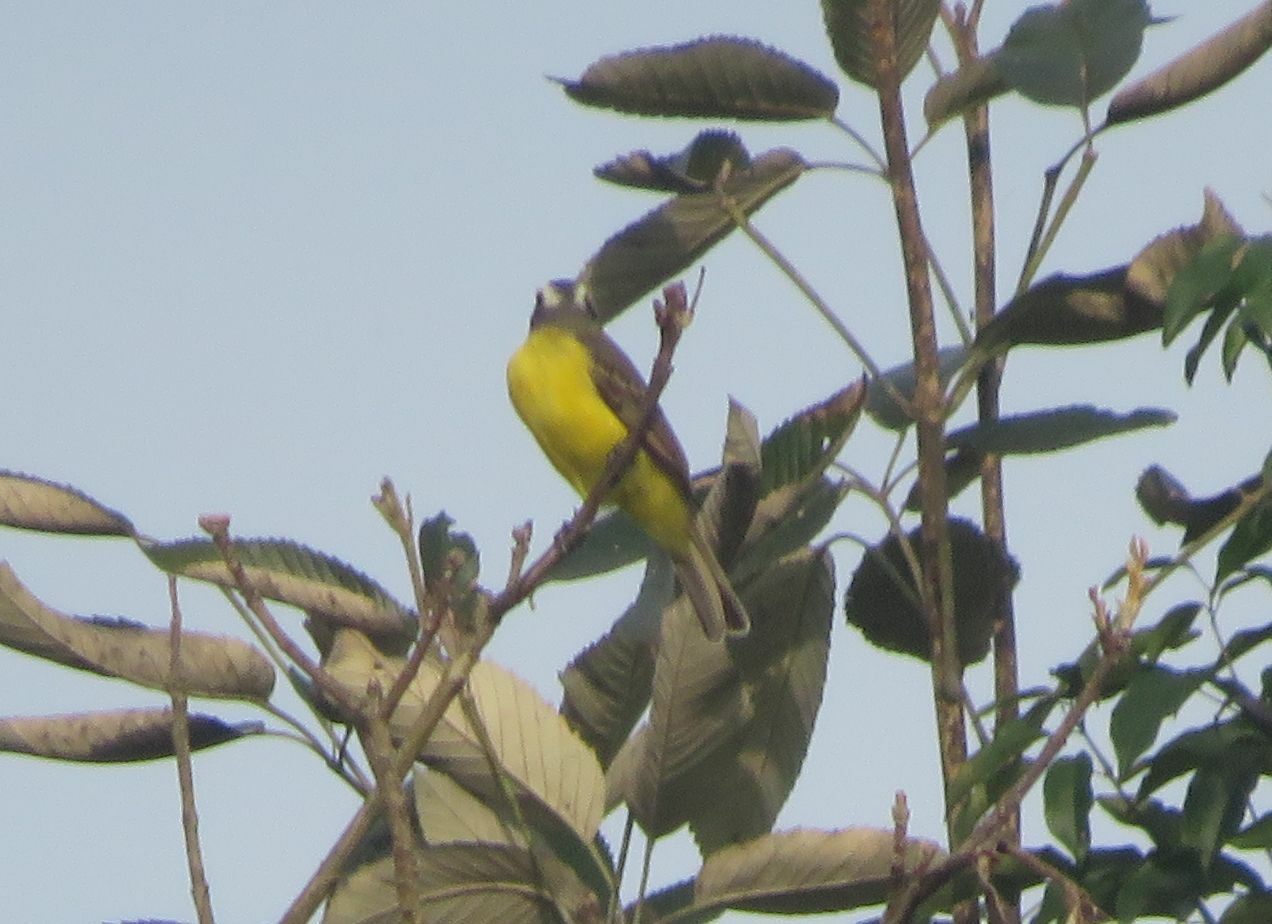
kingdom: Animalia
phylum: Chordata
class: Aves
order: Passeriformes
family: Tyrannidae
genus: Myiozetetes
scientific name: Myiozetetes similis
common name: Social flycatcher
